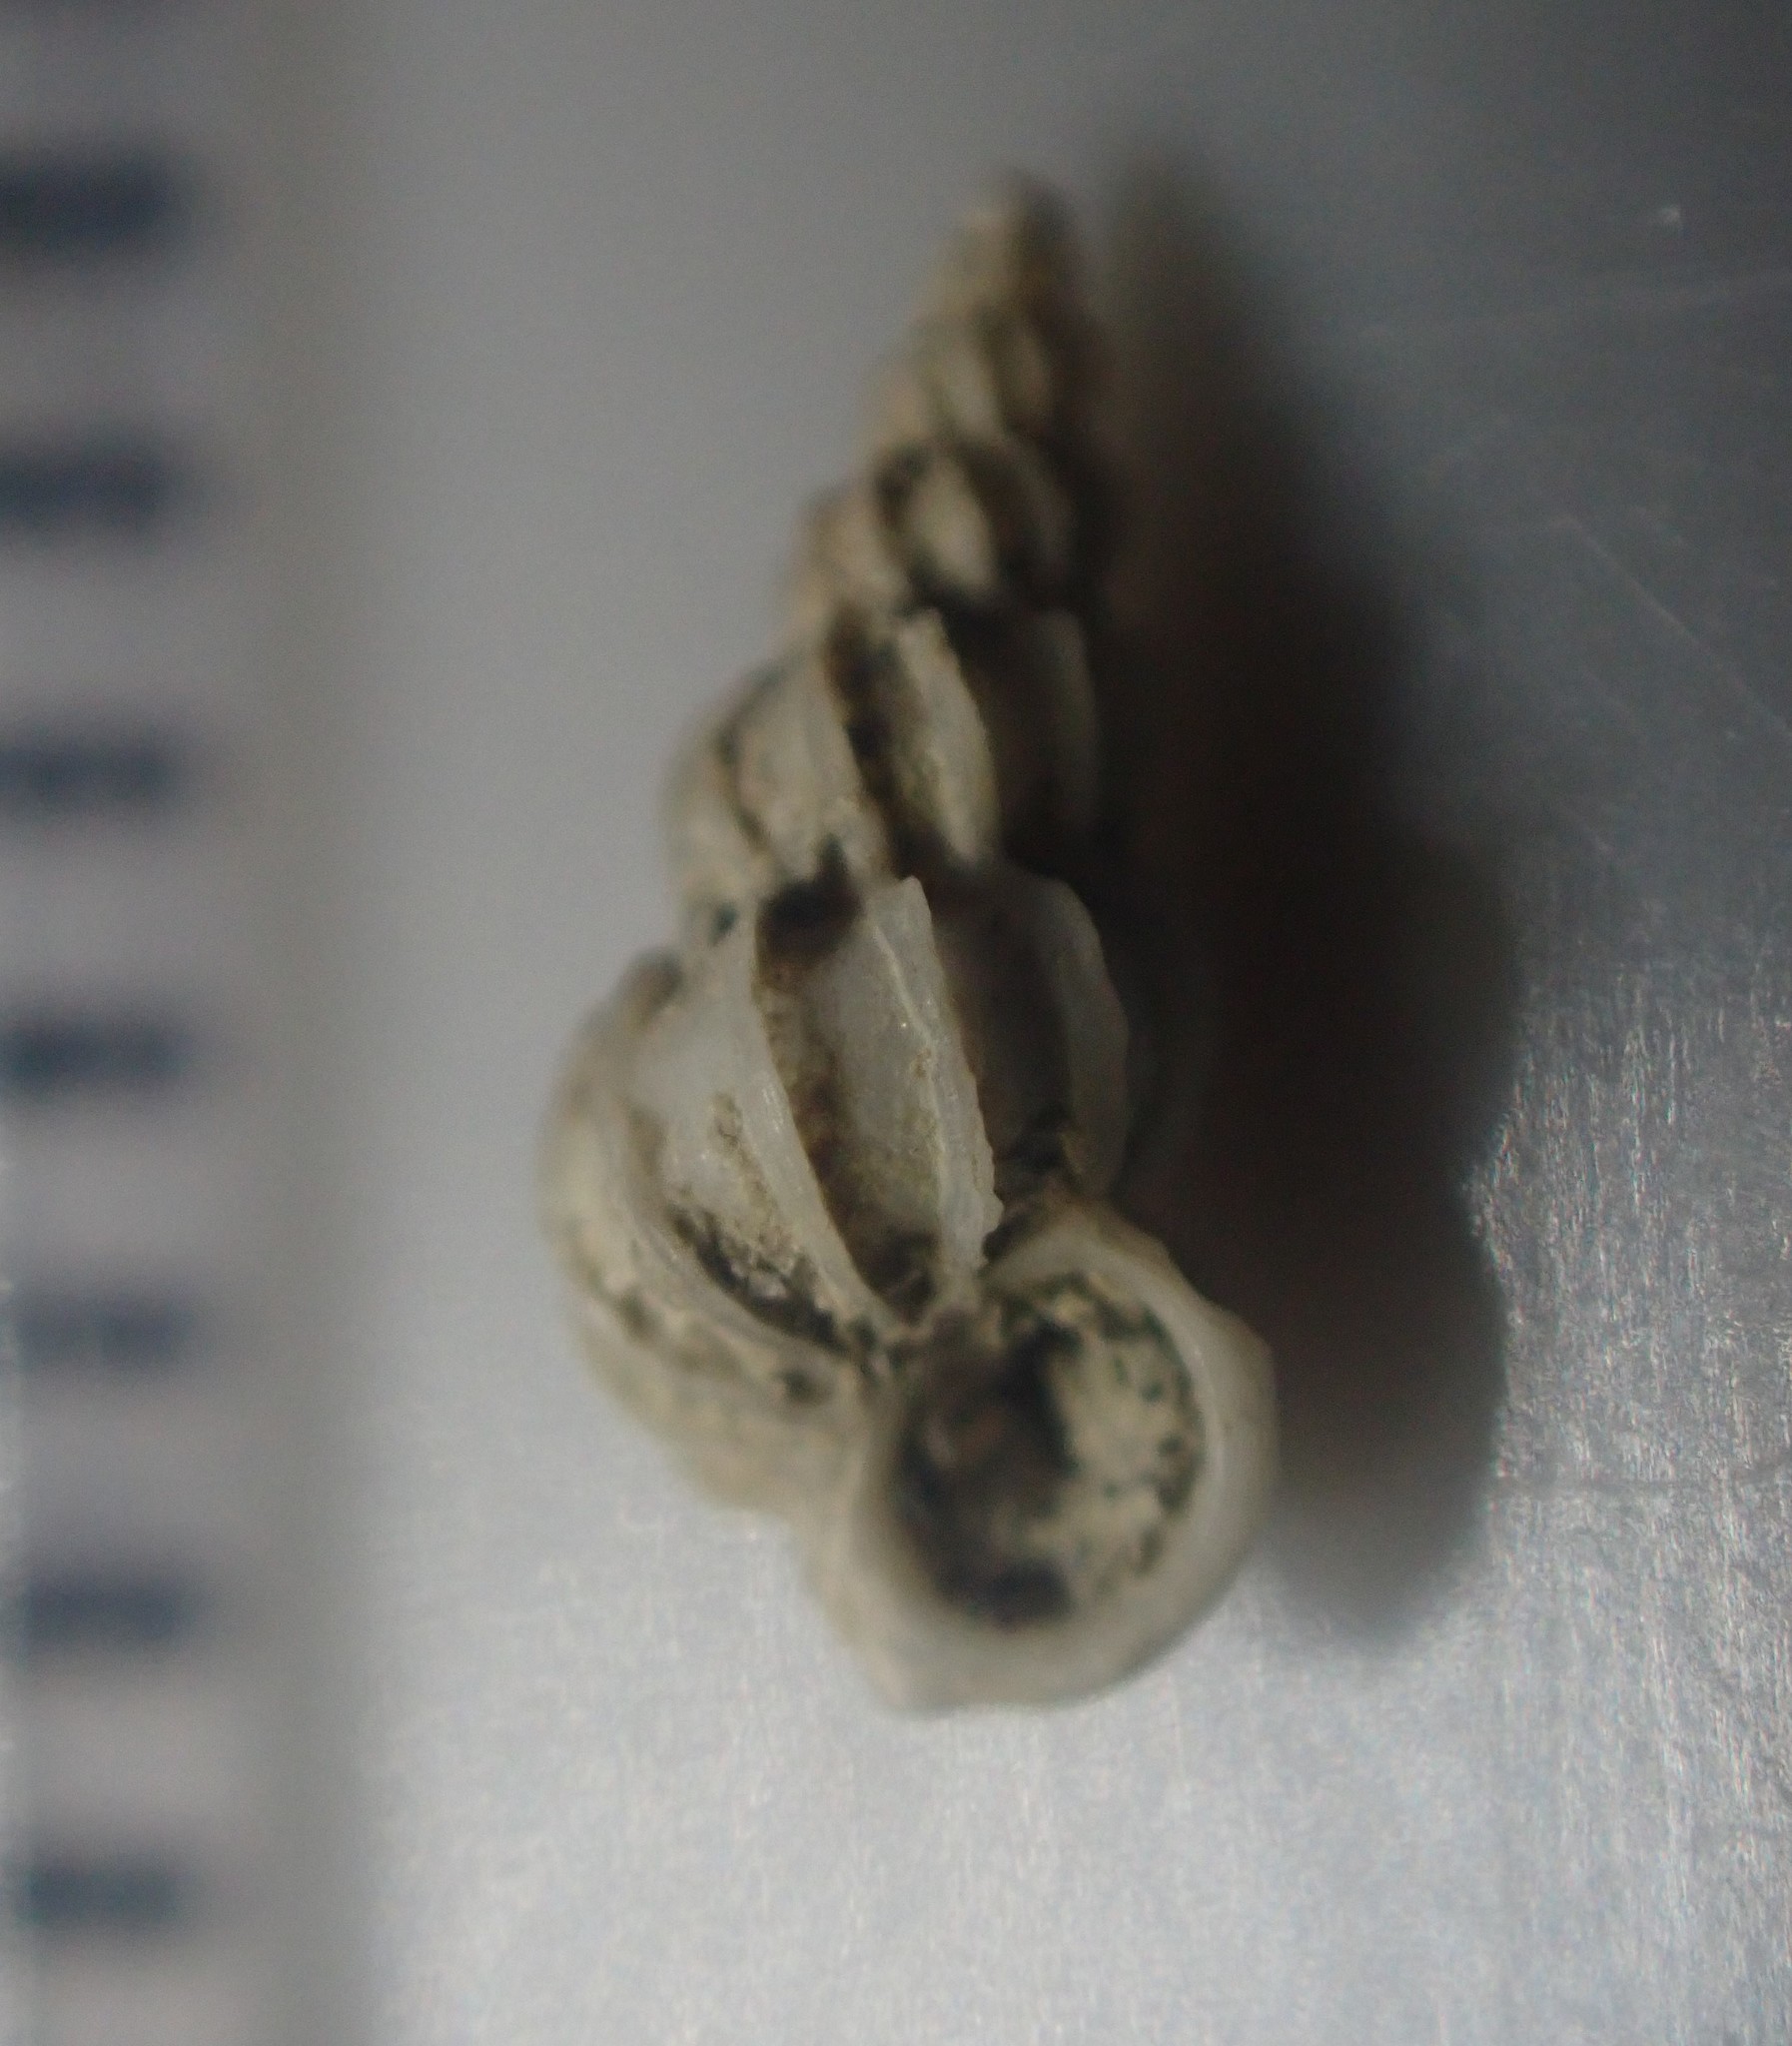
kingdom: Animalia
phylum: Mollusca
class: Gastropoda
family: Epitoniidae
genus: Epitonium
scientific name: Epitonium minorum
